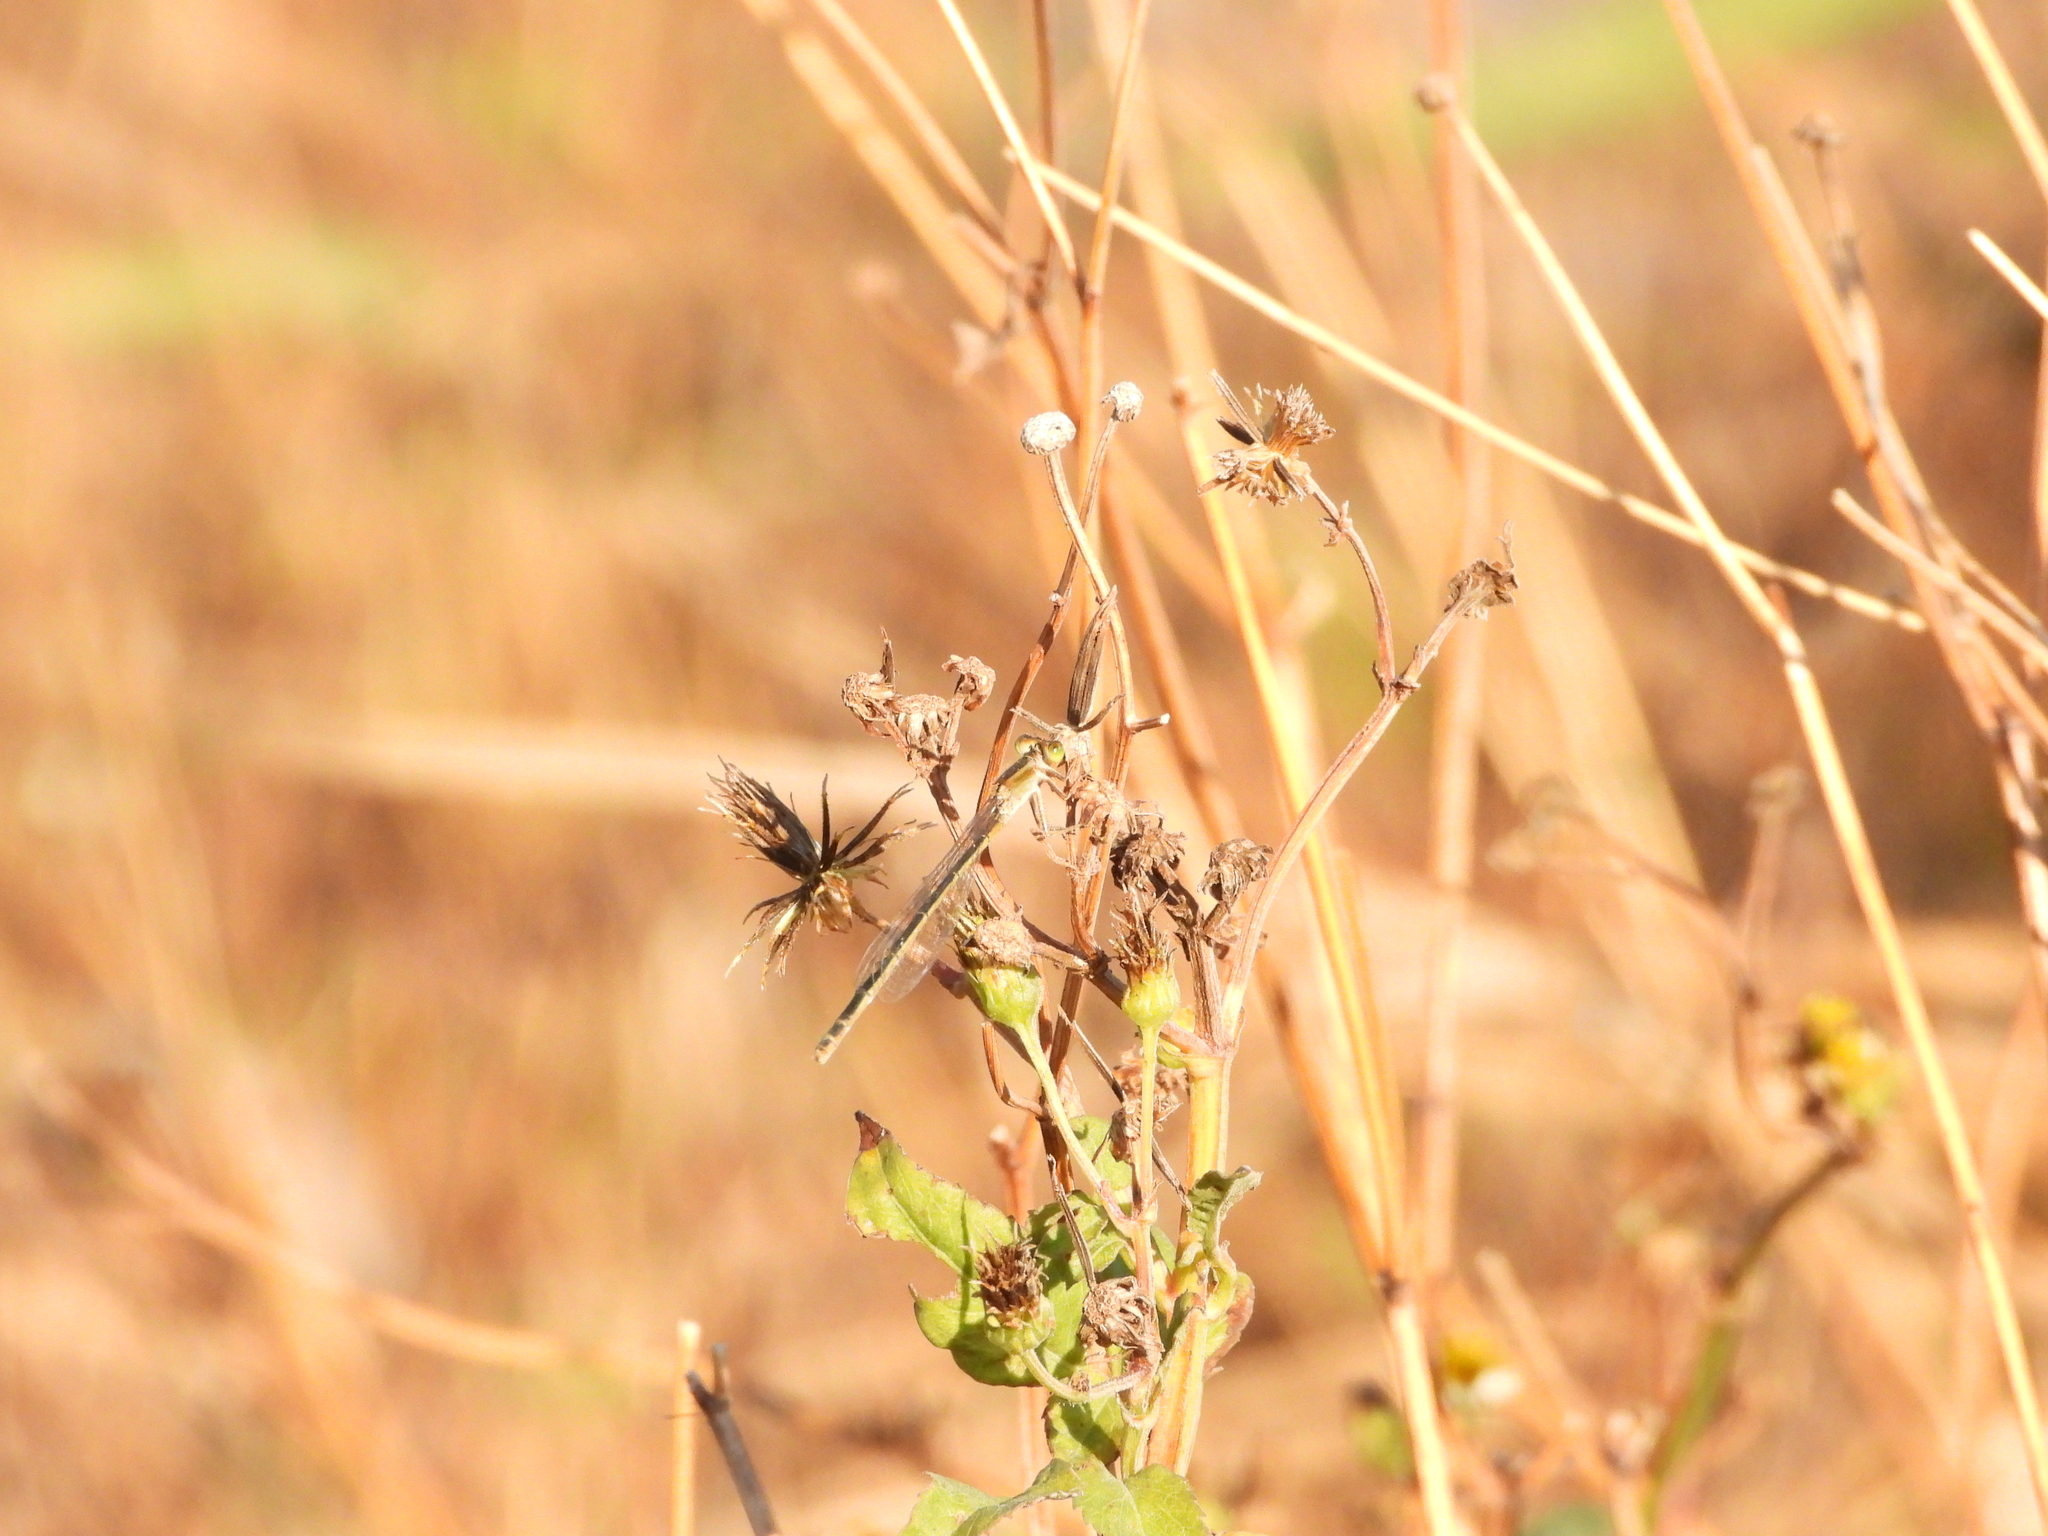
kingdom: Animalia
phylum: Arthropoda
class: Insecta
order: Odonata
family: Coenagrionidae
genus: Ischnura
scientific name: Ischnura senegalensis
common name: Tropical bluetail
